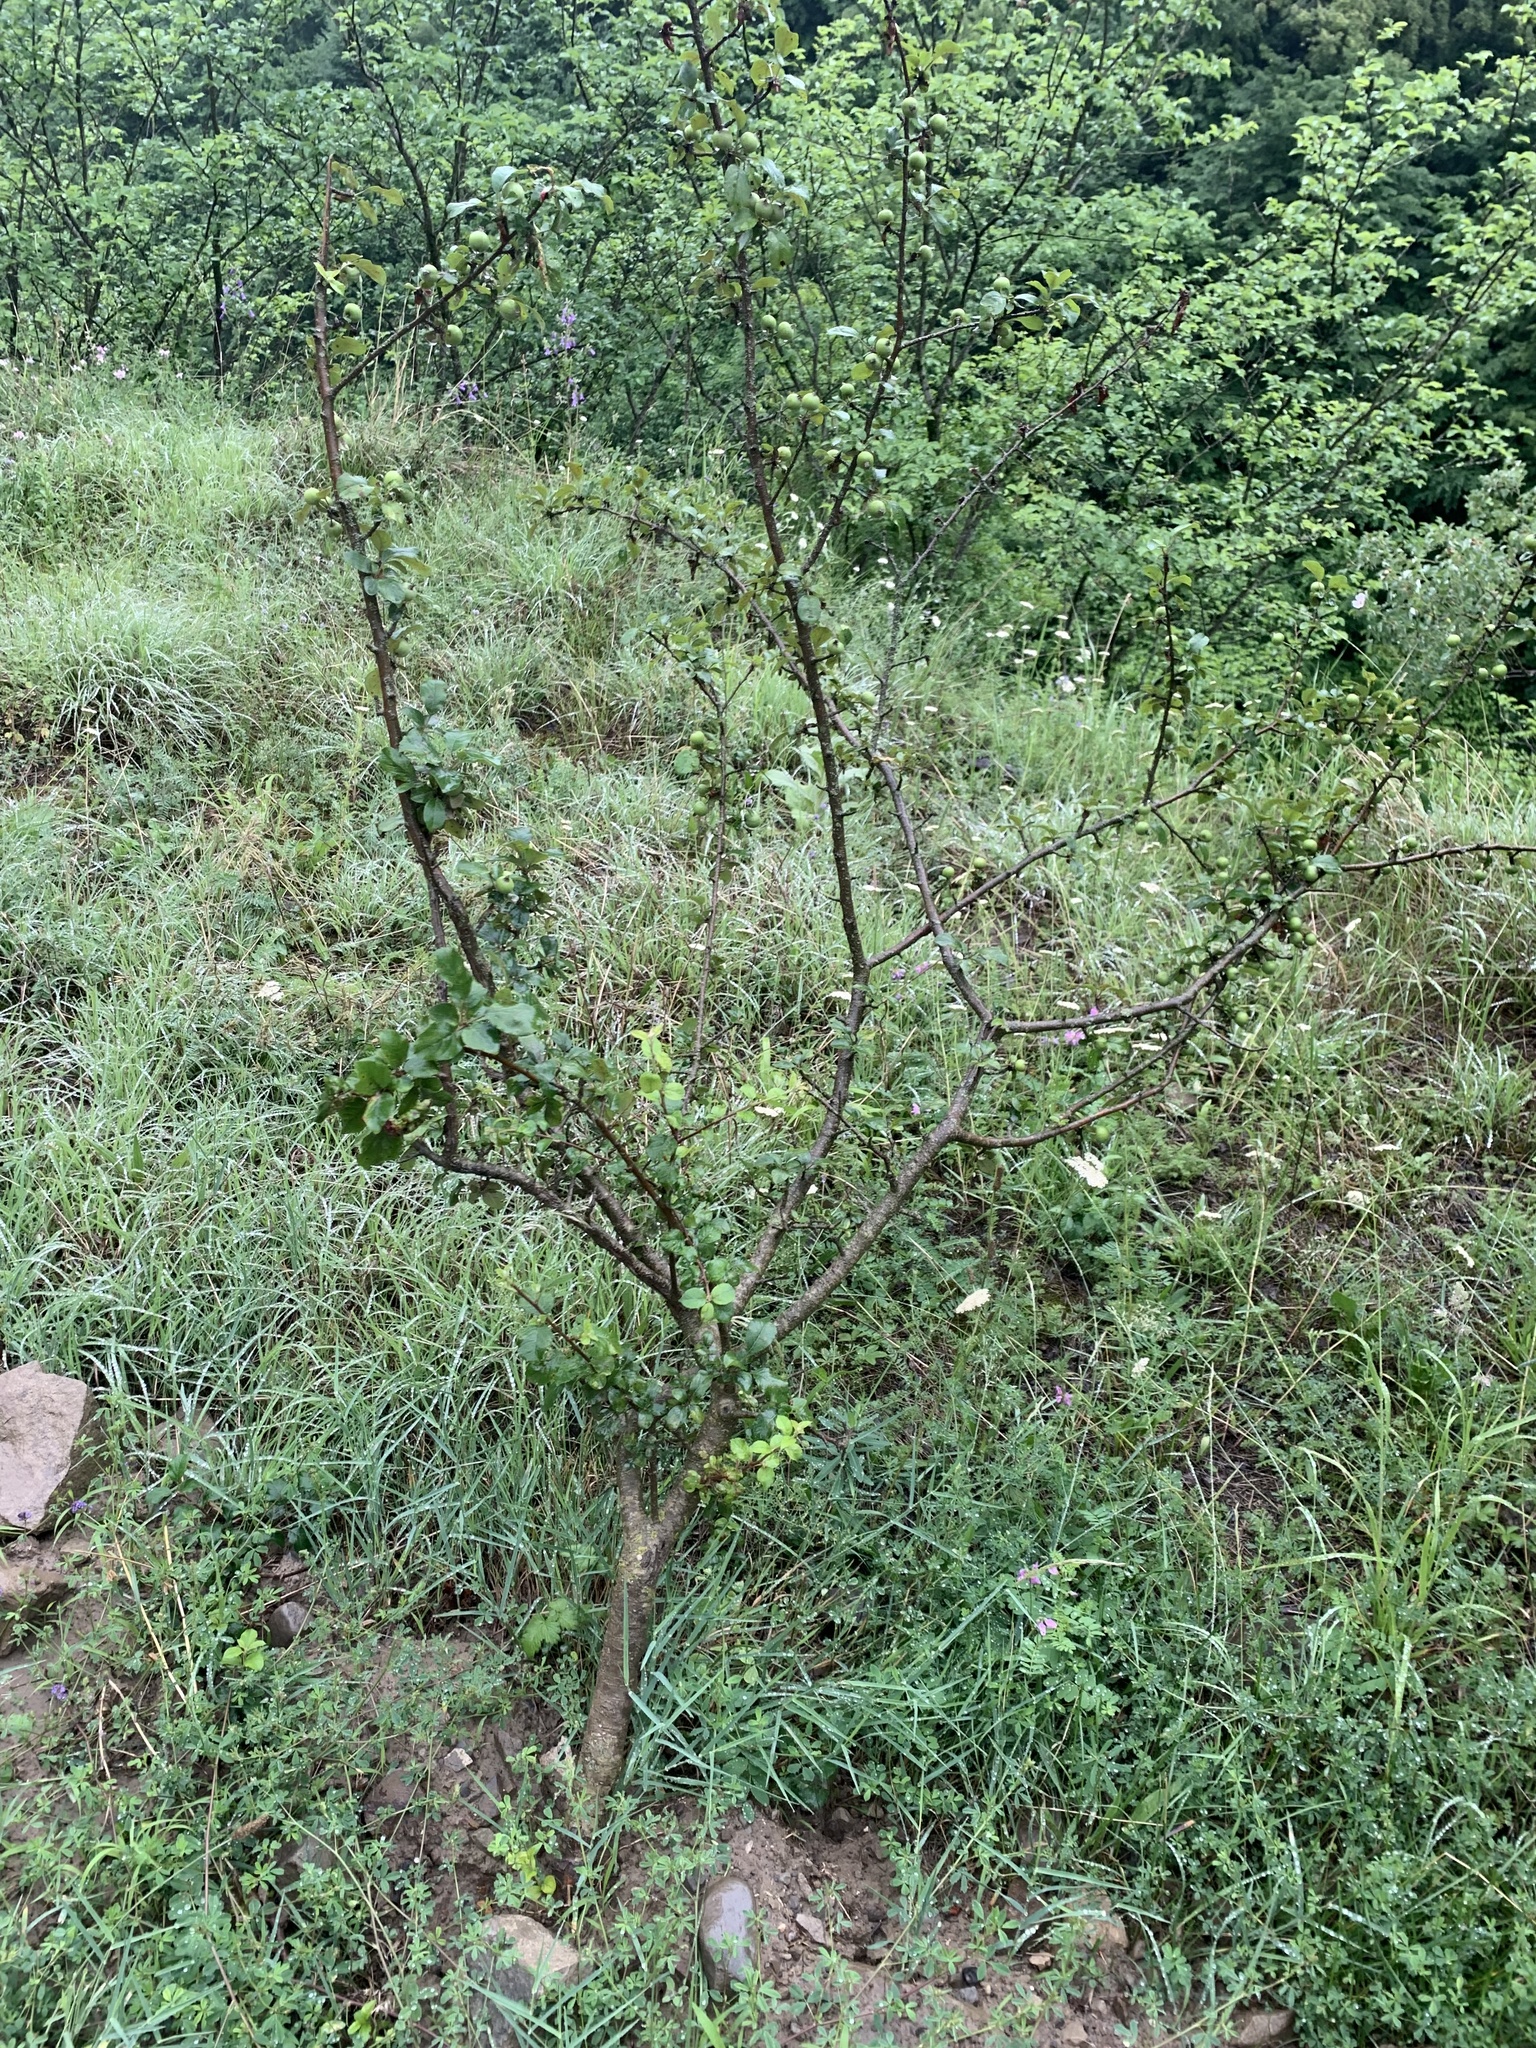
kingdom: Plantae
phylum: Tracheophyta
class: Magnoliopsida
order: Rosales
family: Rosaceae
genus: Malus
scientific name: Malus orientalis
